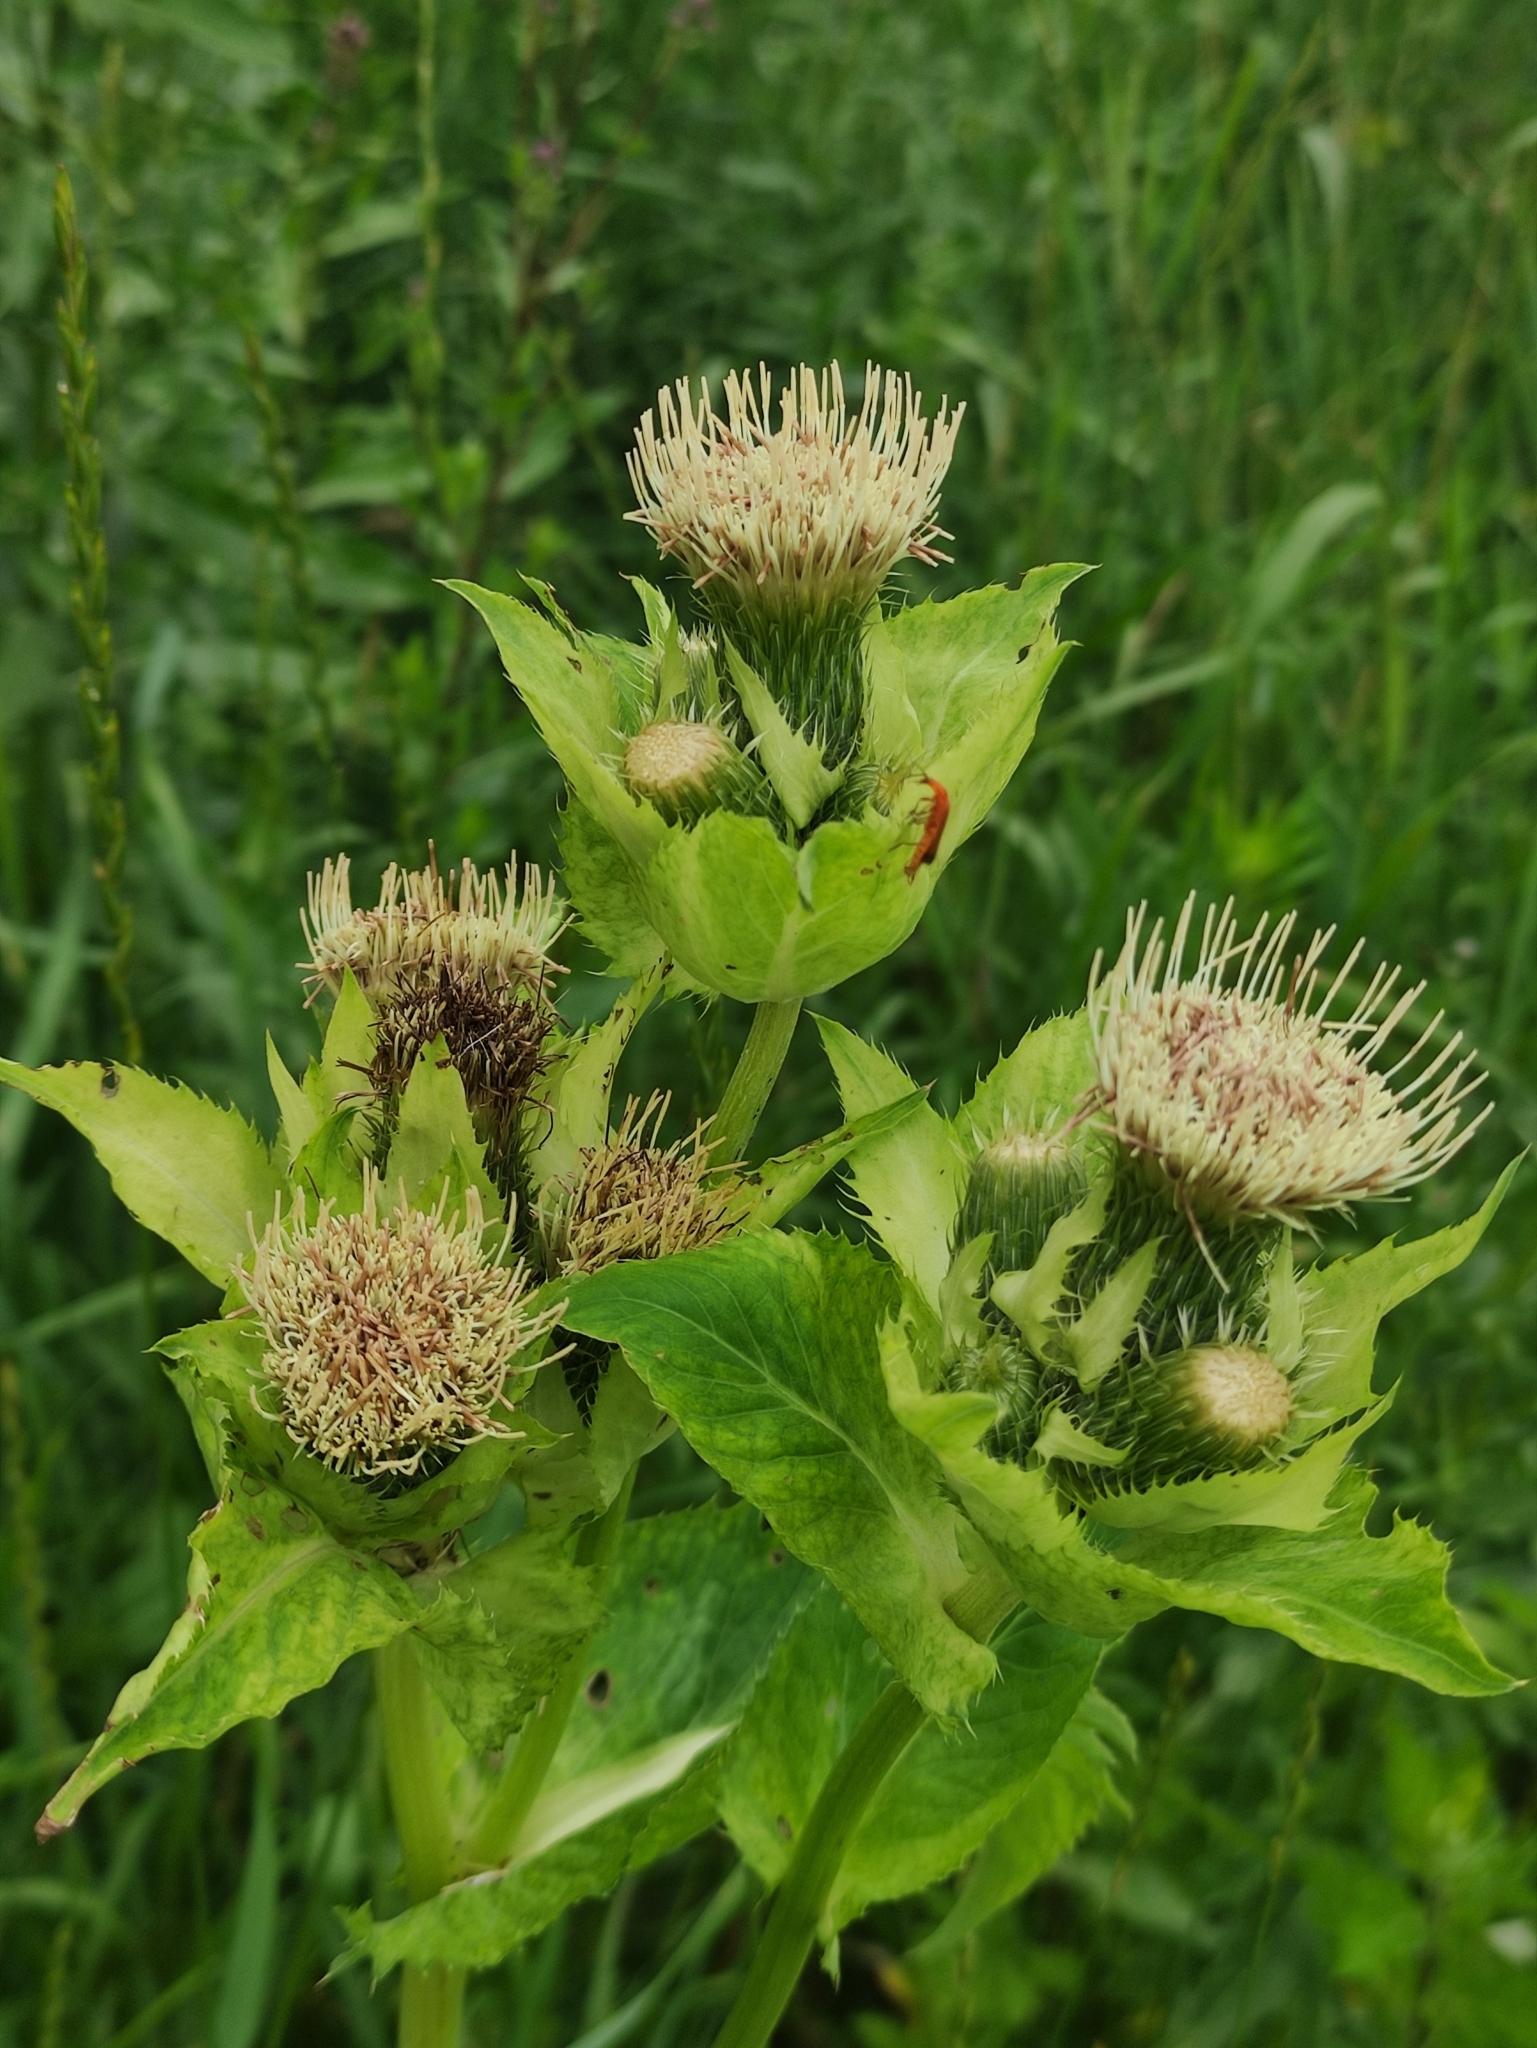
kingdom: Plantae
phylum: Tracheophyta
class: Magnoliopsida
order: Asterales
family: Asteraceae
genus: Cirsium
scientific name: Cirsium oleraceum
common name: Cabbage thistle
